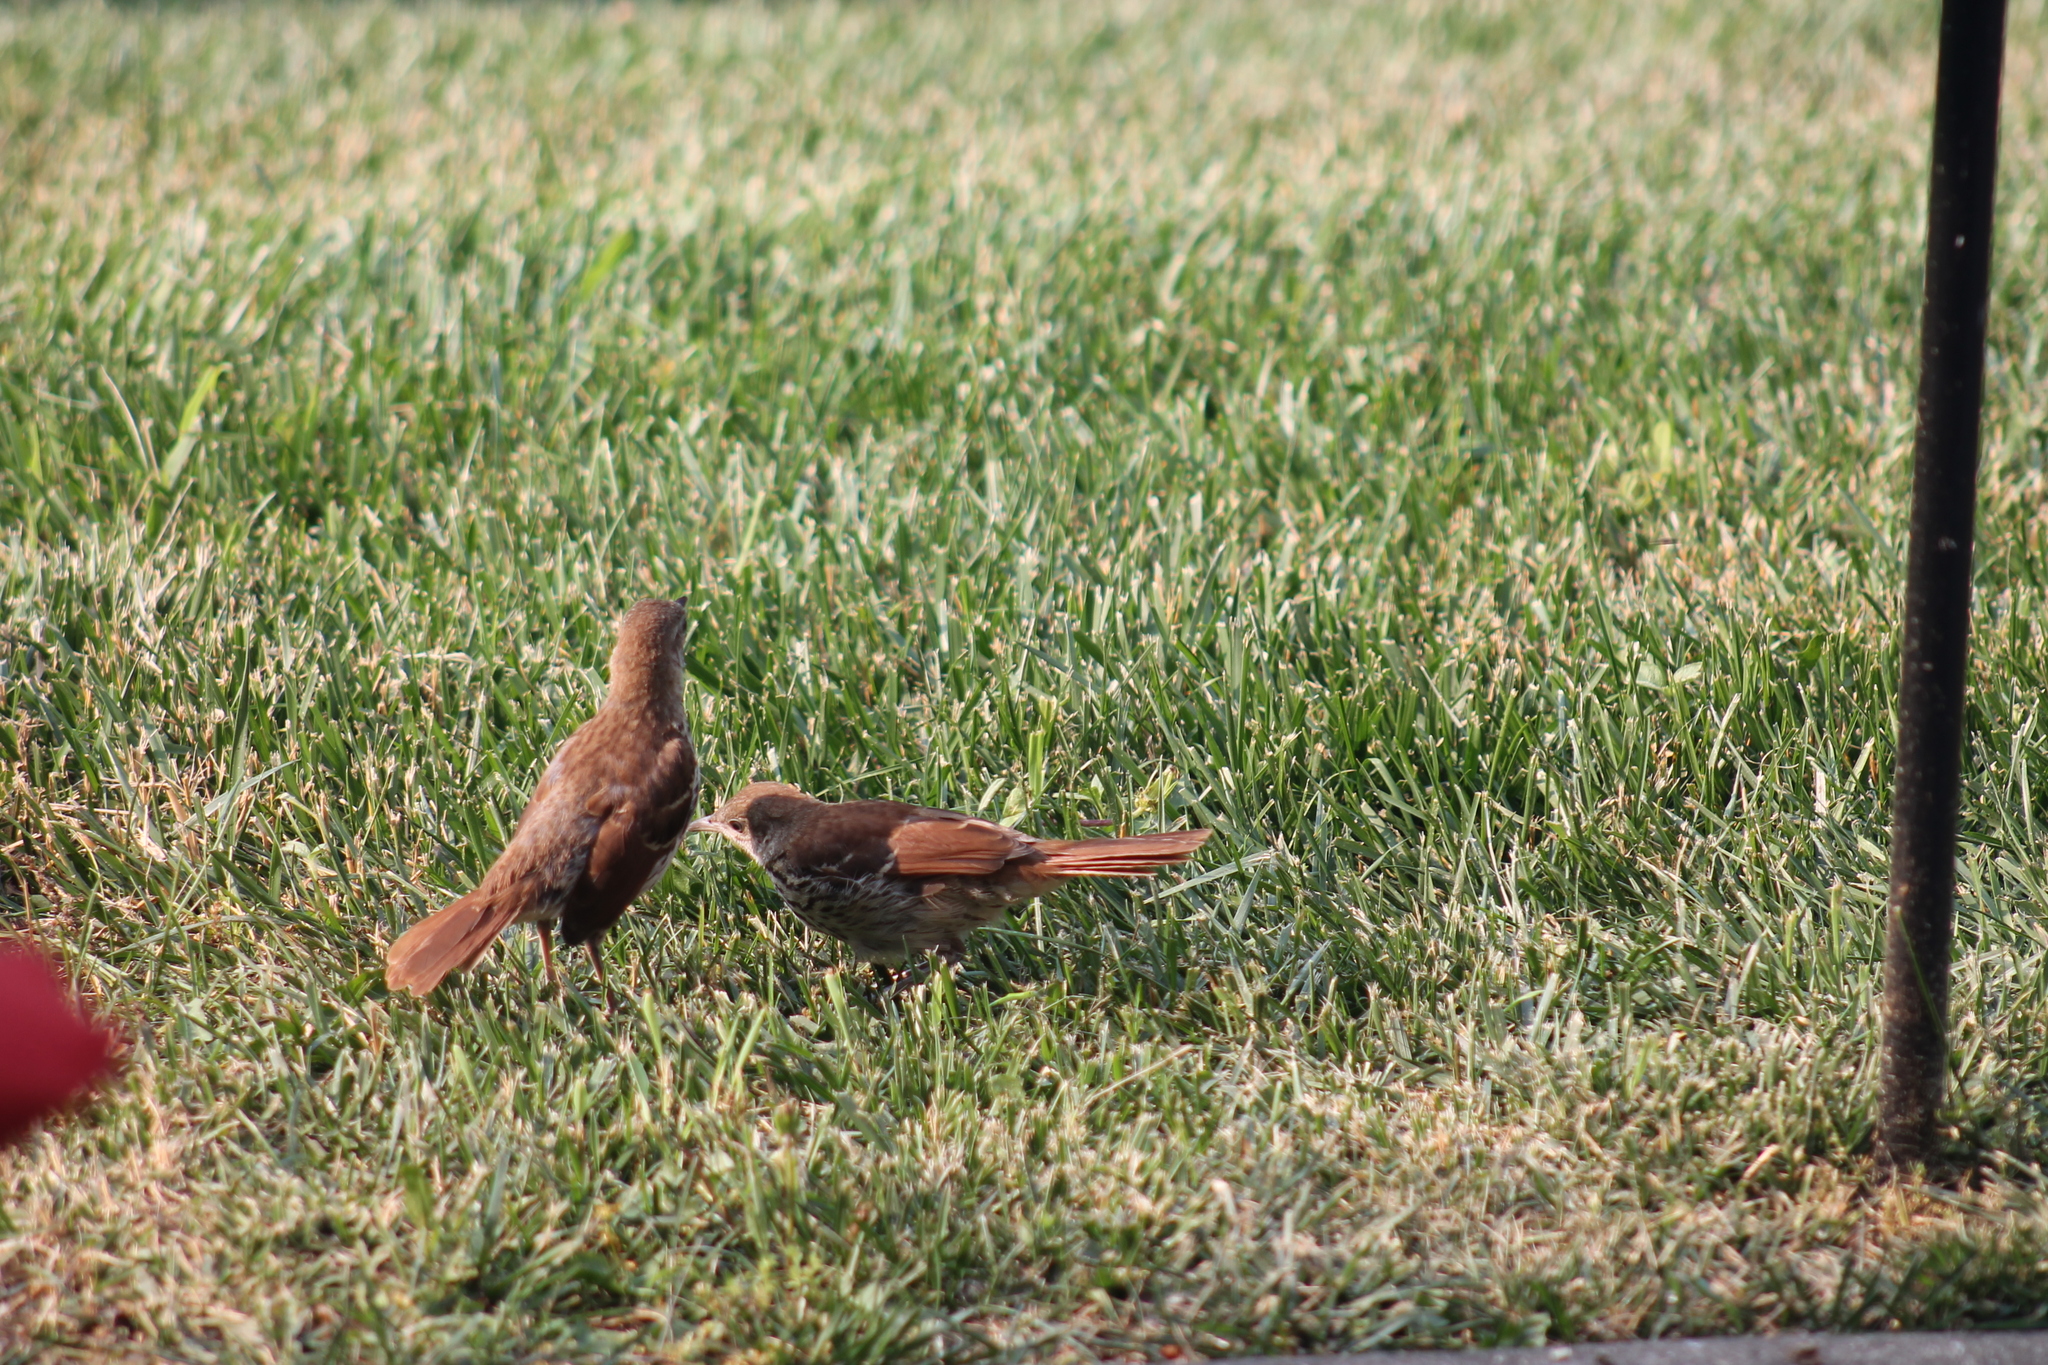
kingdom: Animalia
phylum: Chordata
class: Aves
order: Passeriformes
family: Mimidae
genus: Toxostoma
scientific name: Toxostoma rufum
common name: Brown thrasher
